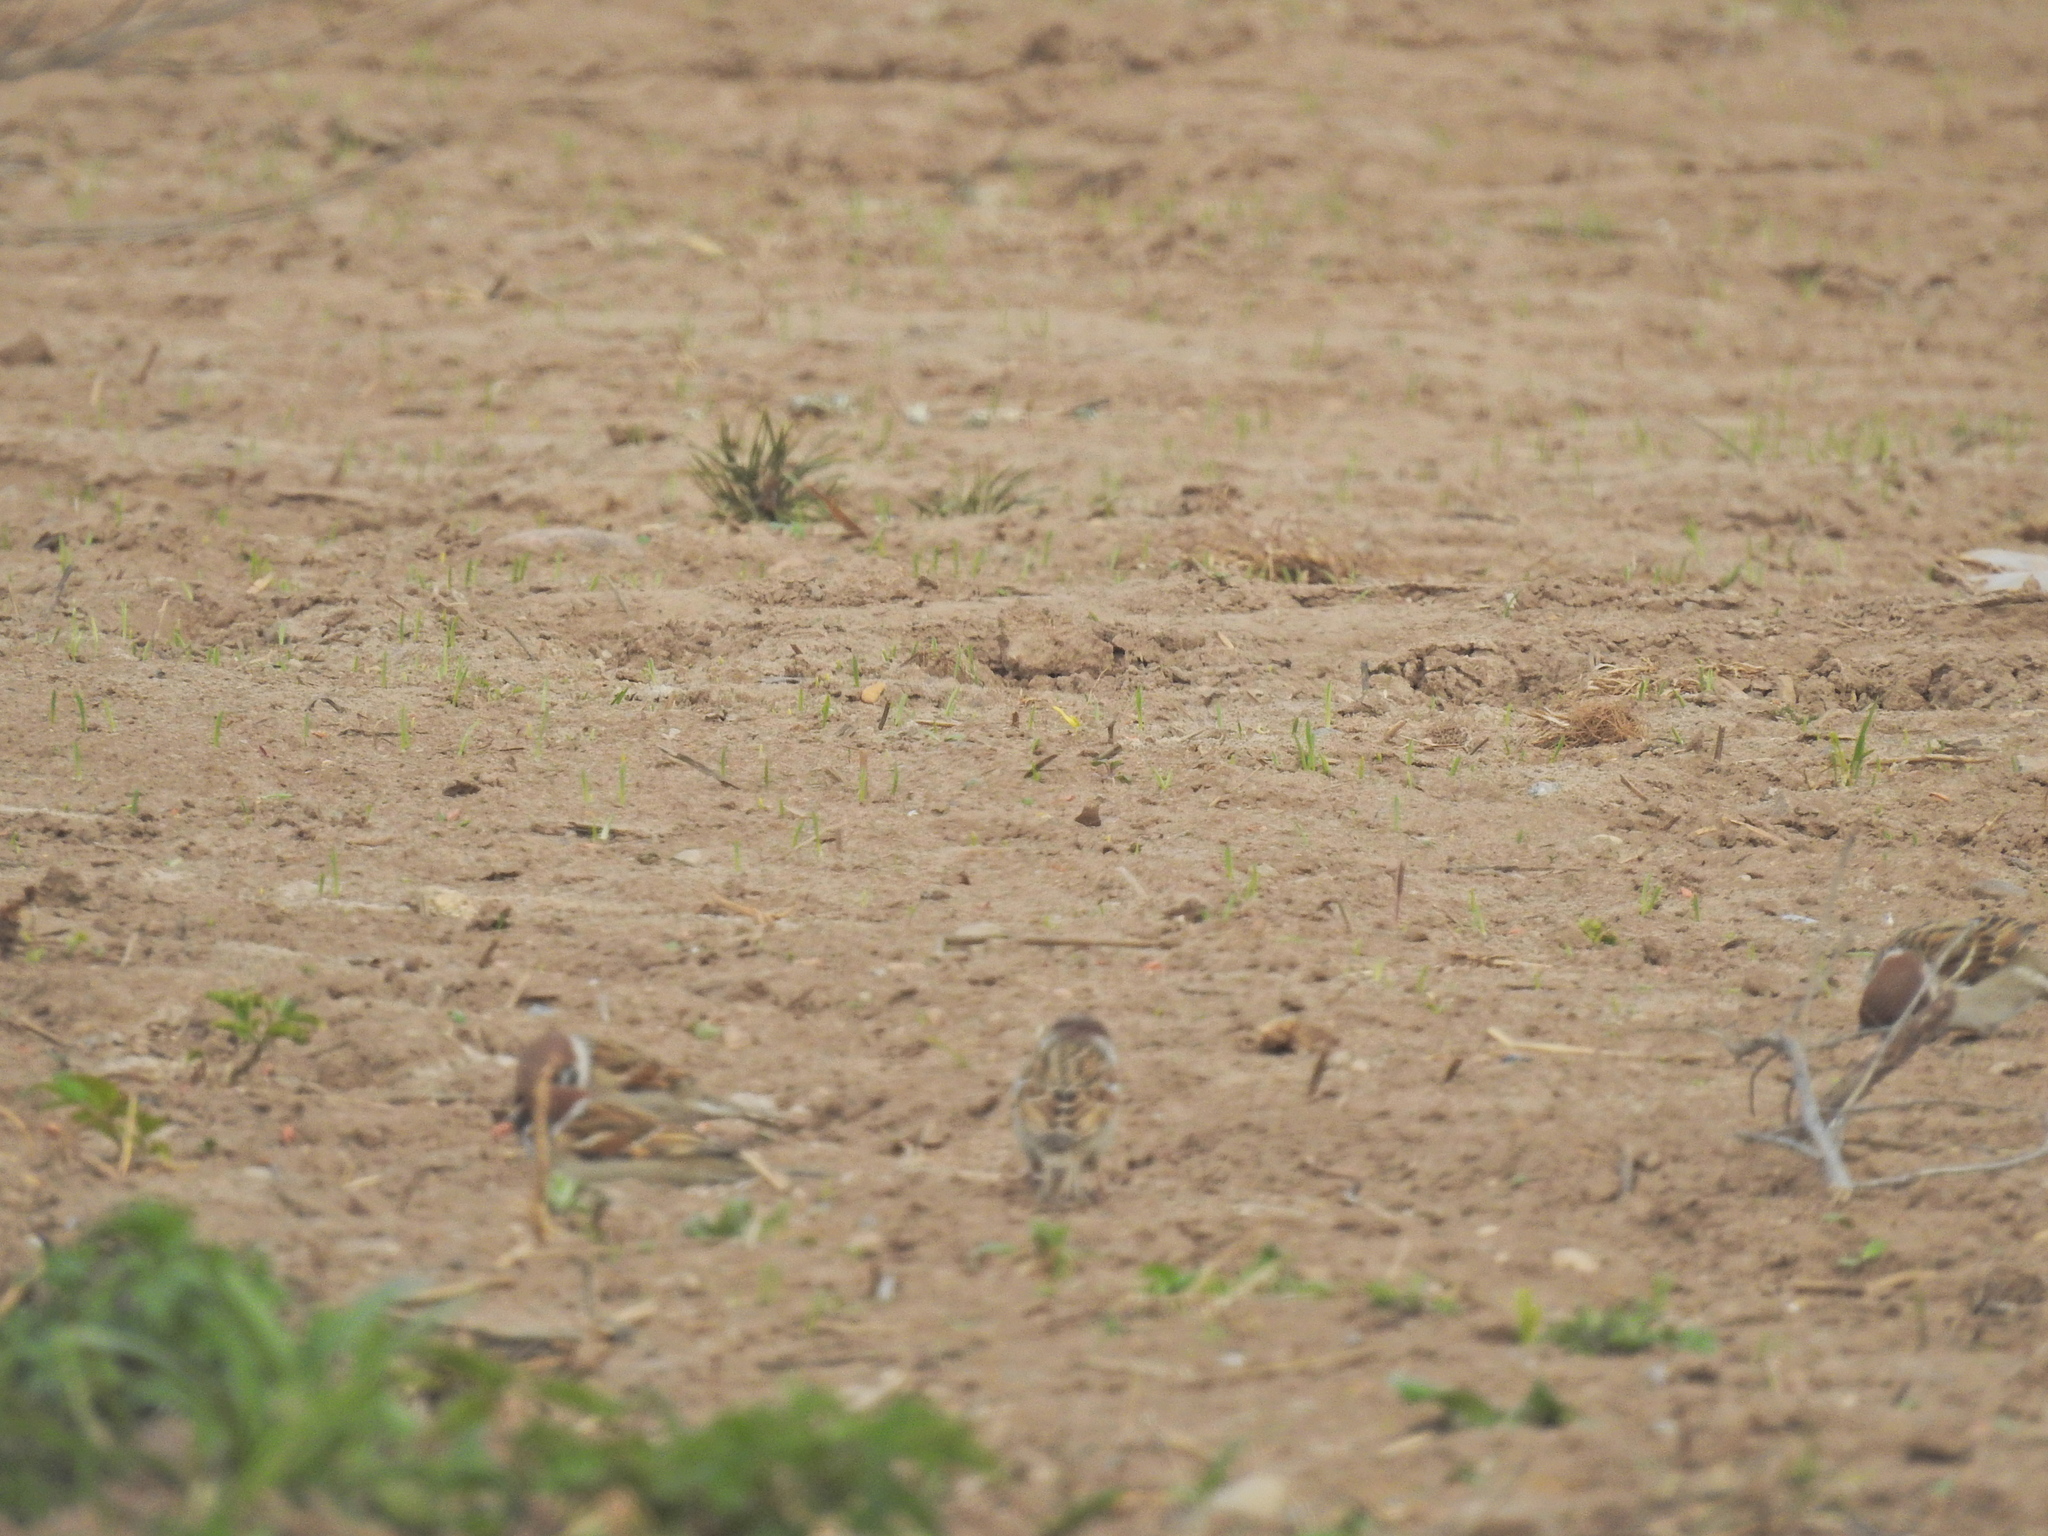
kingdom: Animalia
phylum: Chordata
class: Aves
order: Passeriformes
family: Passeridae
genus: Passer
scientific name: Passer montanus
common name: Eurasian tree sparrow
